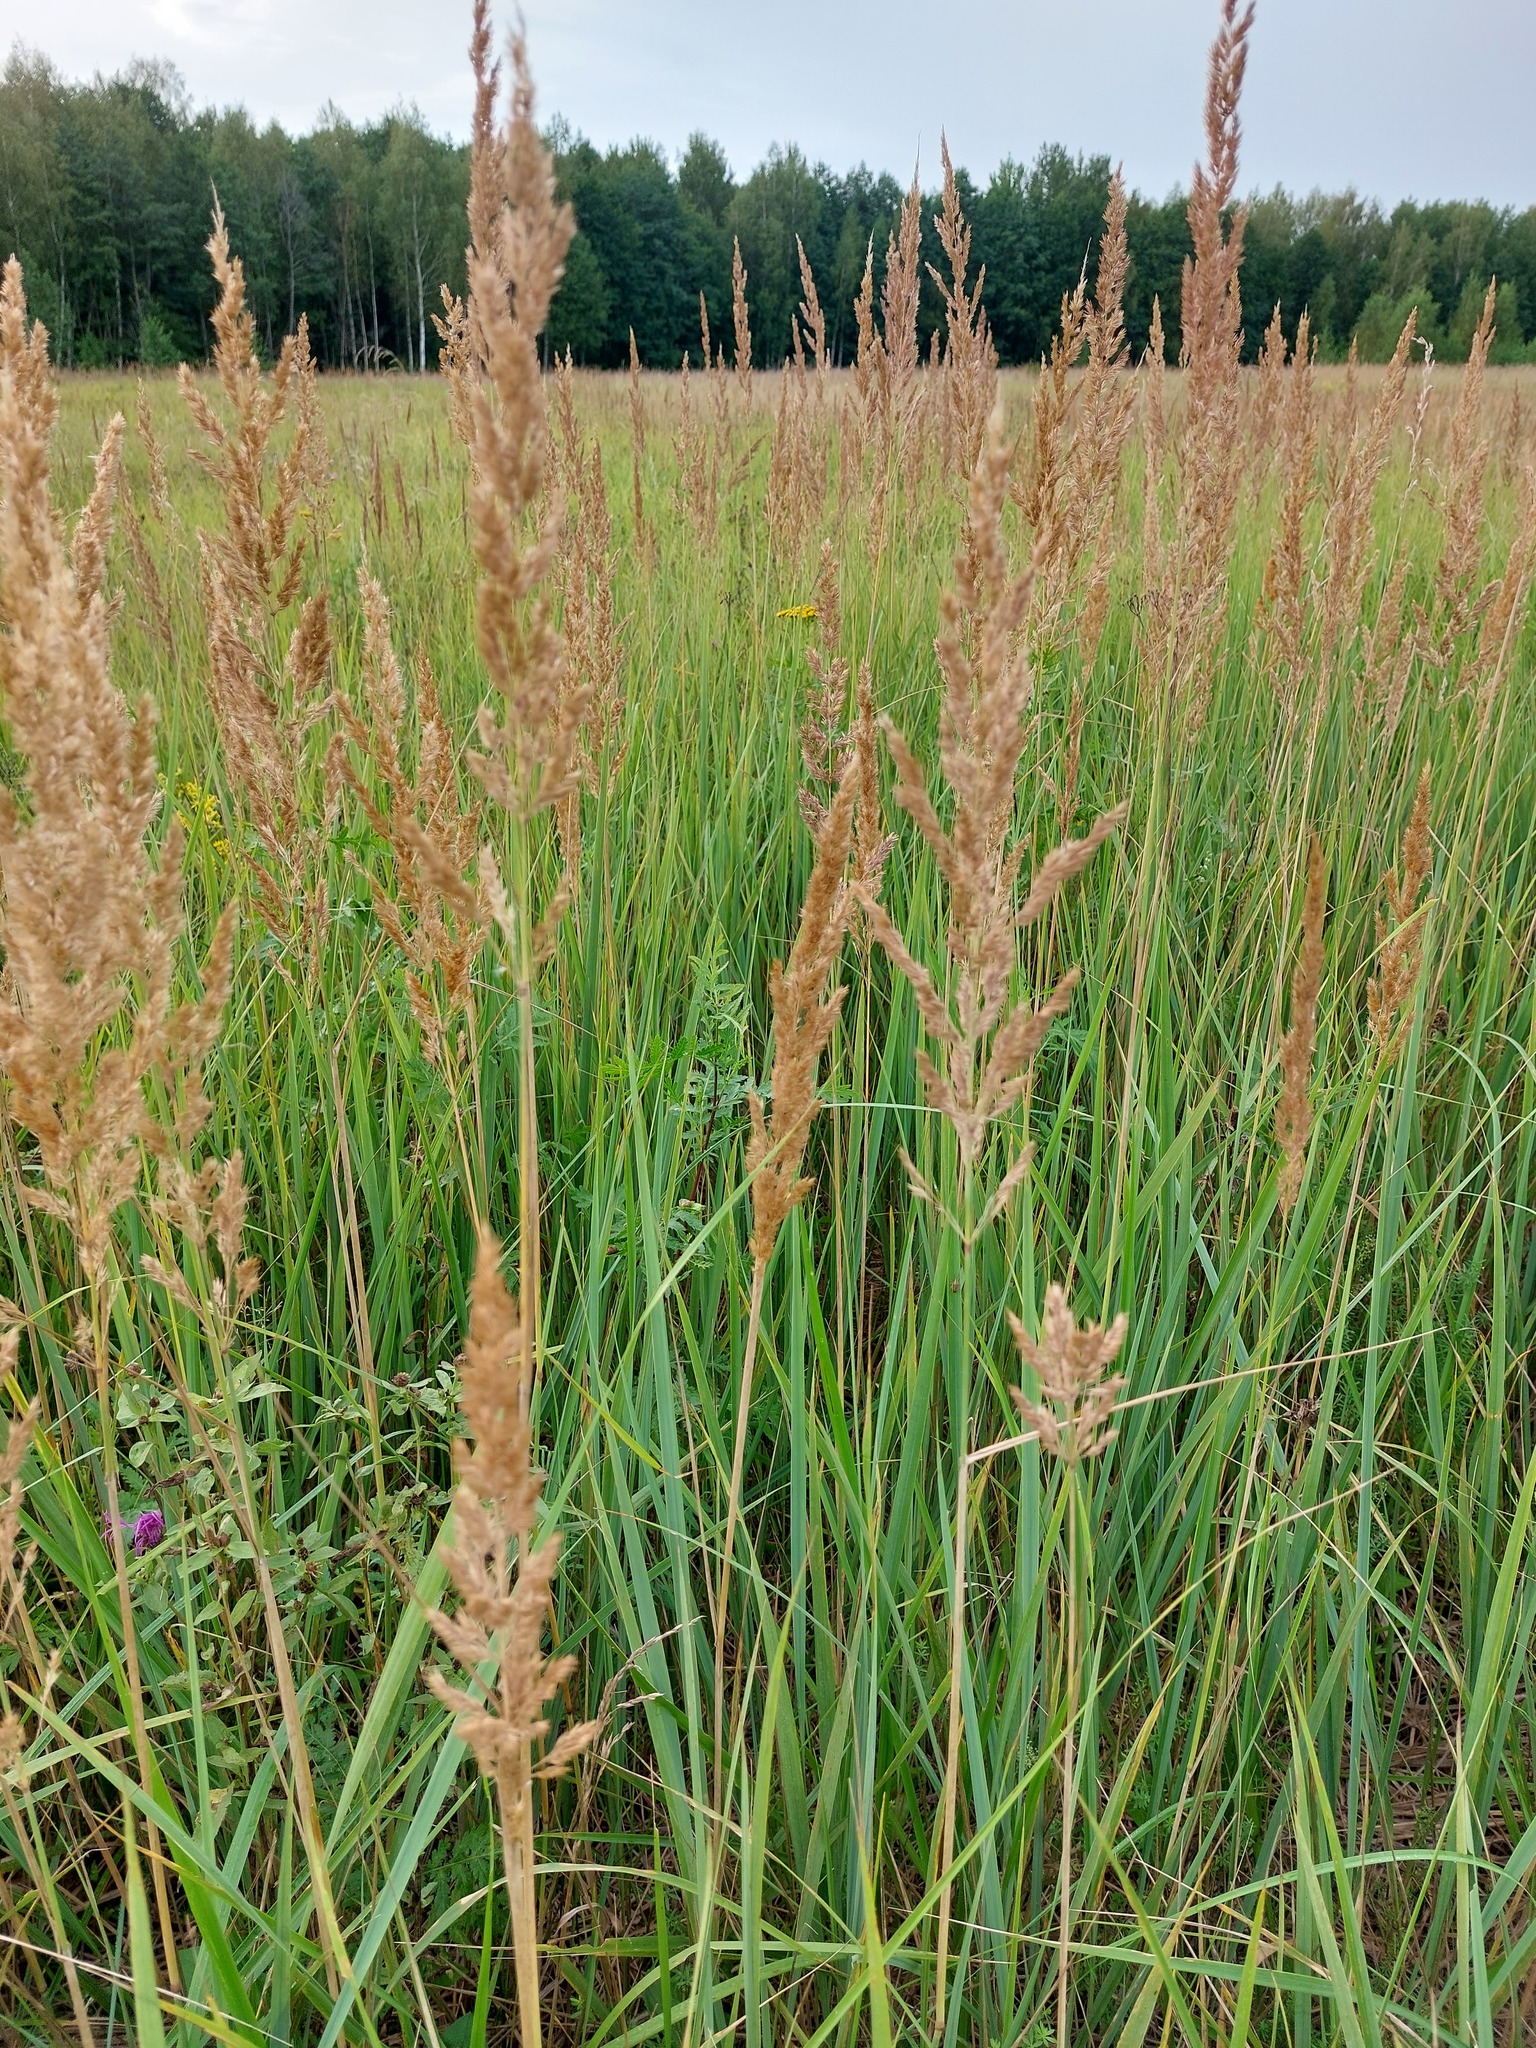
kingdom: Plantae
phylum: Tracheophyta
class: Liliopsida
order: Poales
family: Poaceae
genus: Calamagrostis
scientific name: Calamagrostis epigejos
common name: Wood small-reed
